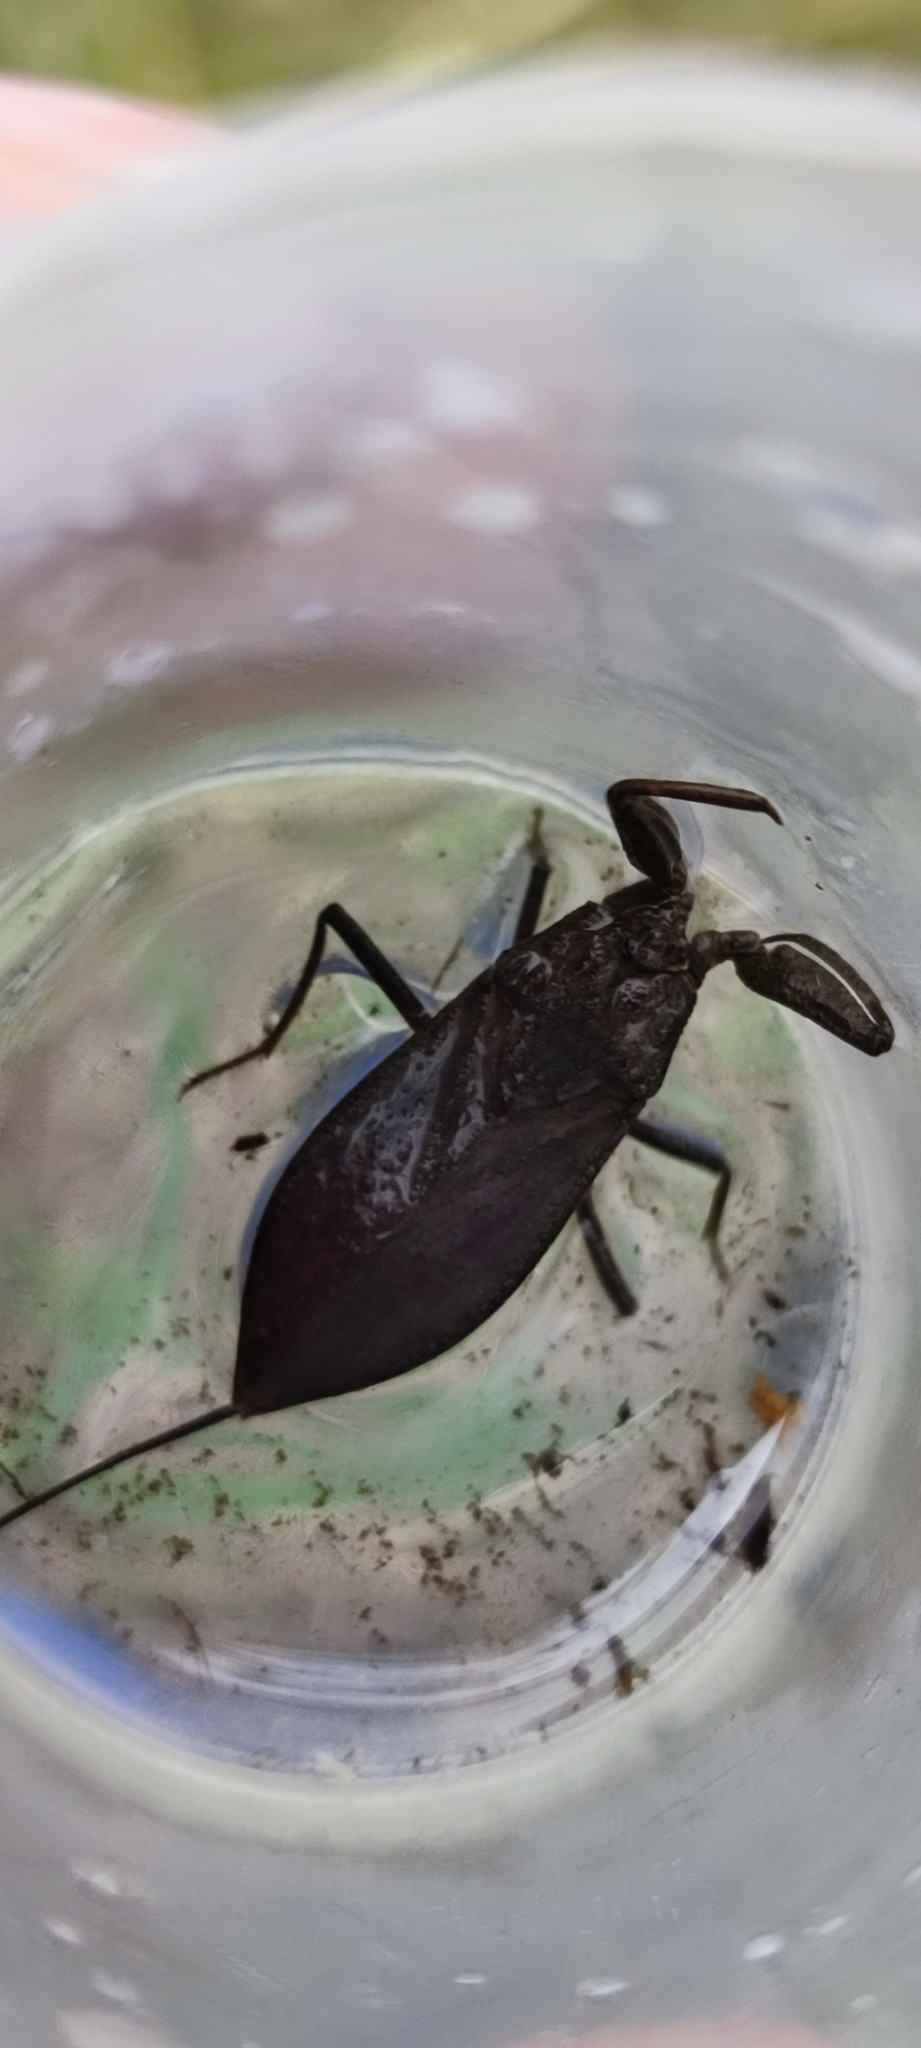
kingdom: Animalia
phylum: Arthropoda
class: Insecta
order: Hemiptera
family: Nepidae
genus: Nepa
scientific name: Nepa cinerea
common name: Water scorpion
